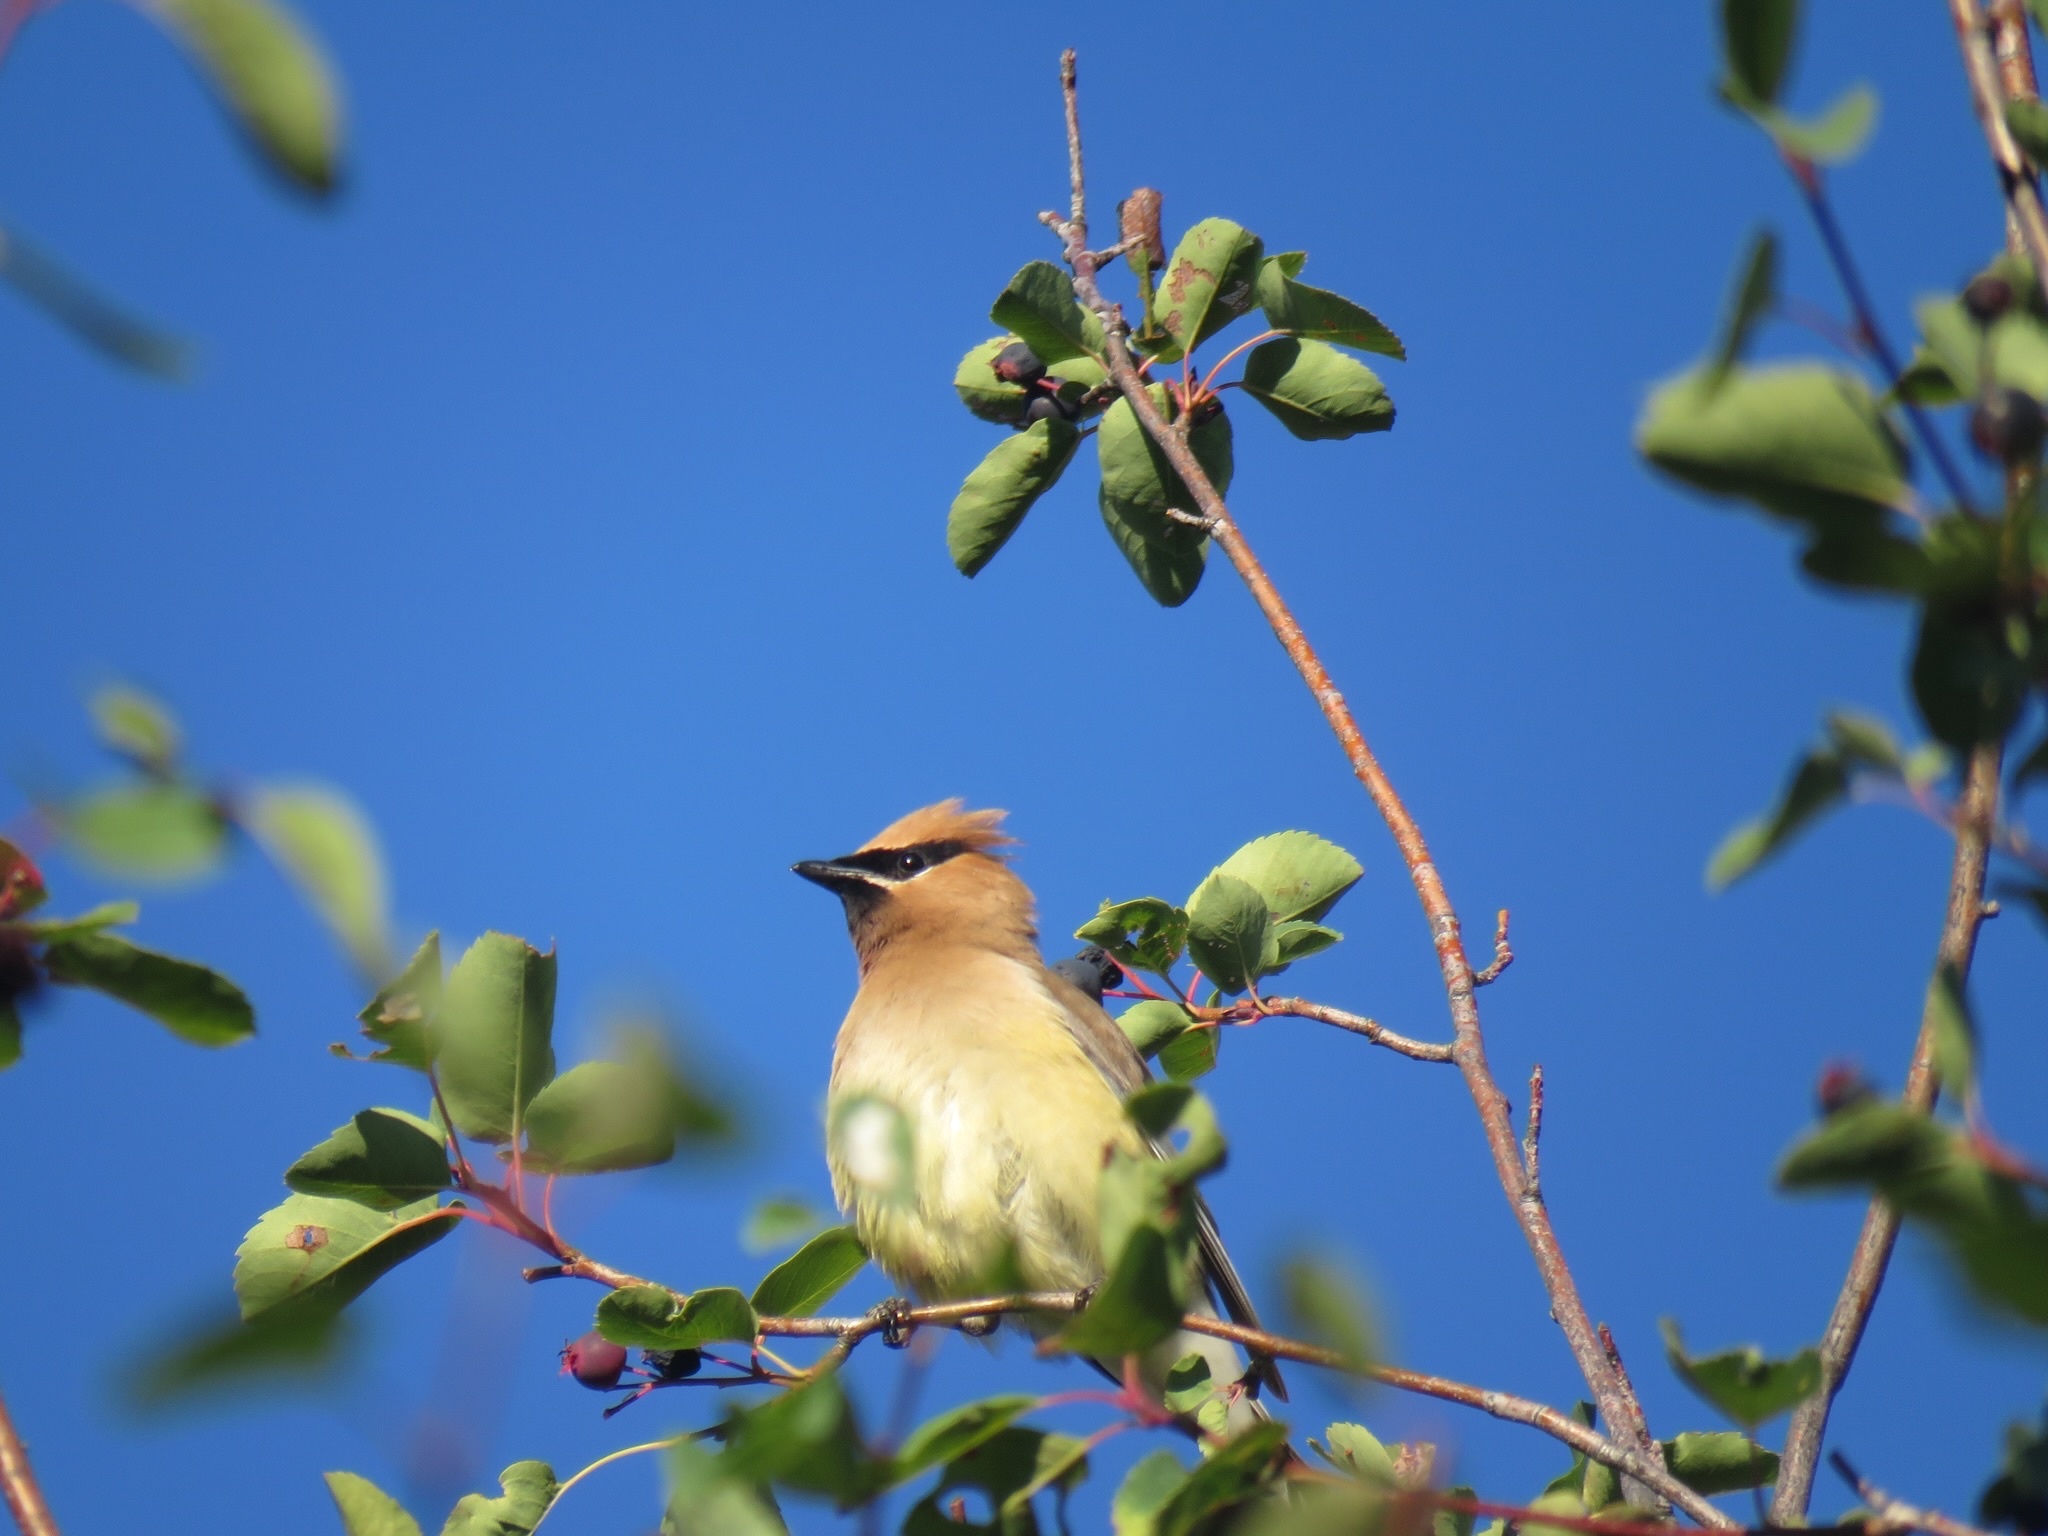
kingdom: Animalia
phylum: Chordata
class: Aves
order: Passeriformes
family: Bombycillidae
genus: Bombycilla
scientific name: Bombycilla cedrorum
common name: Cedar waxwing
